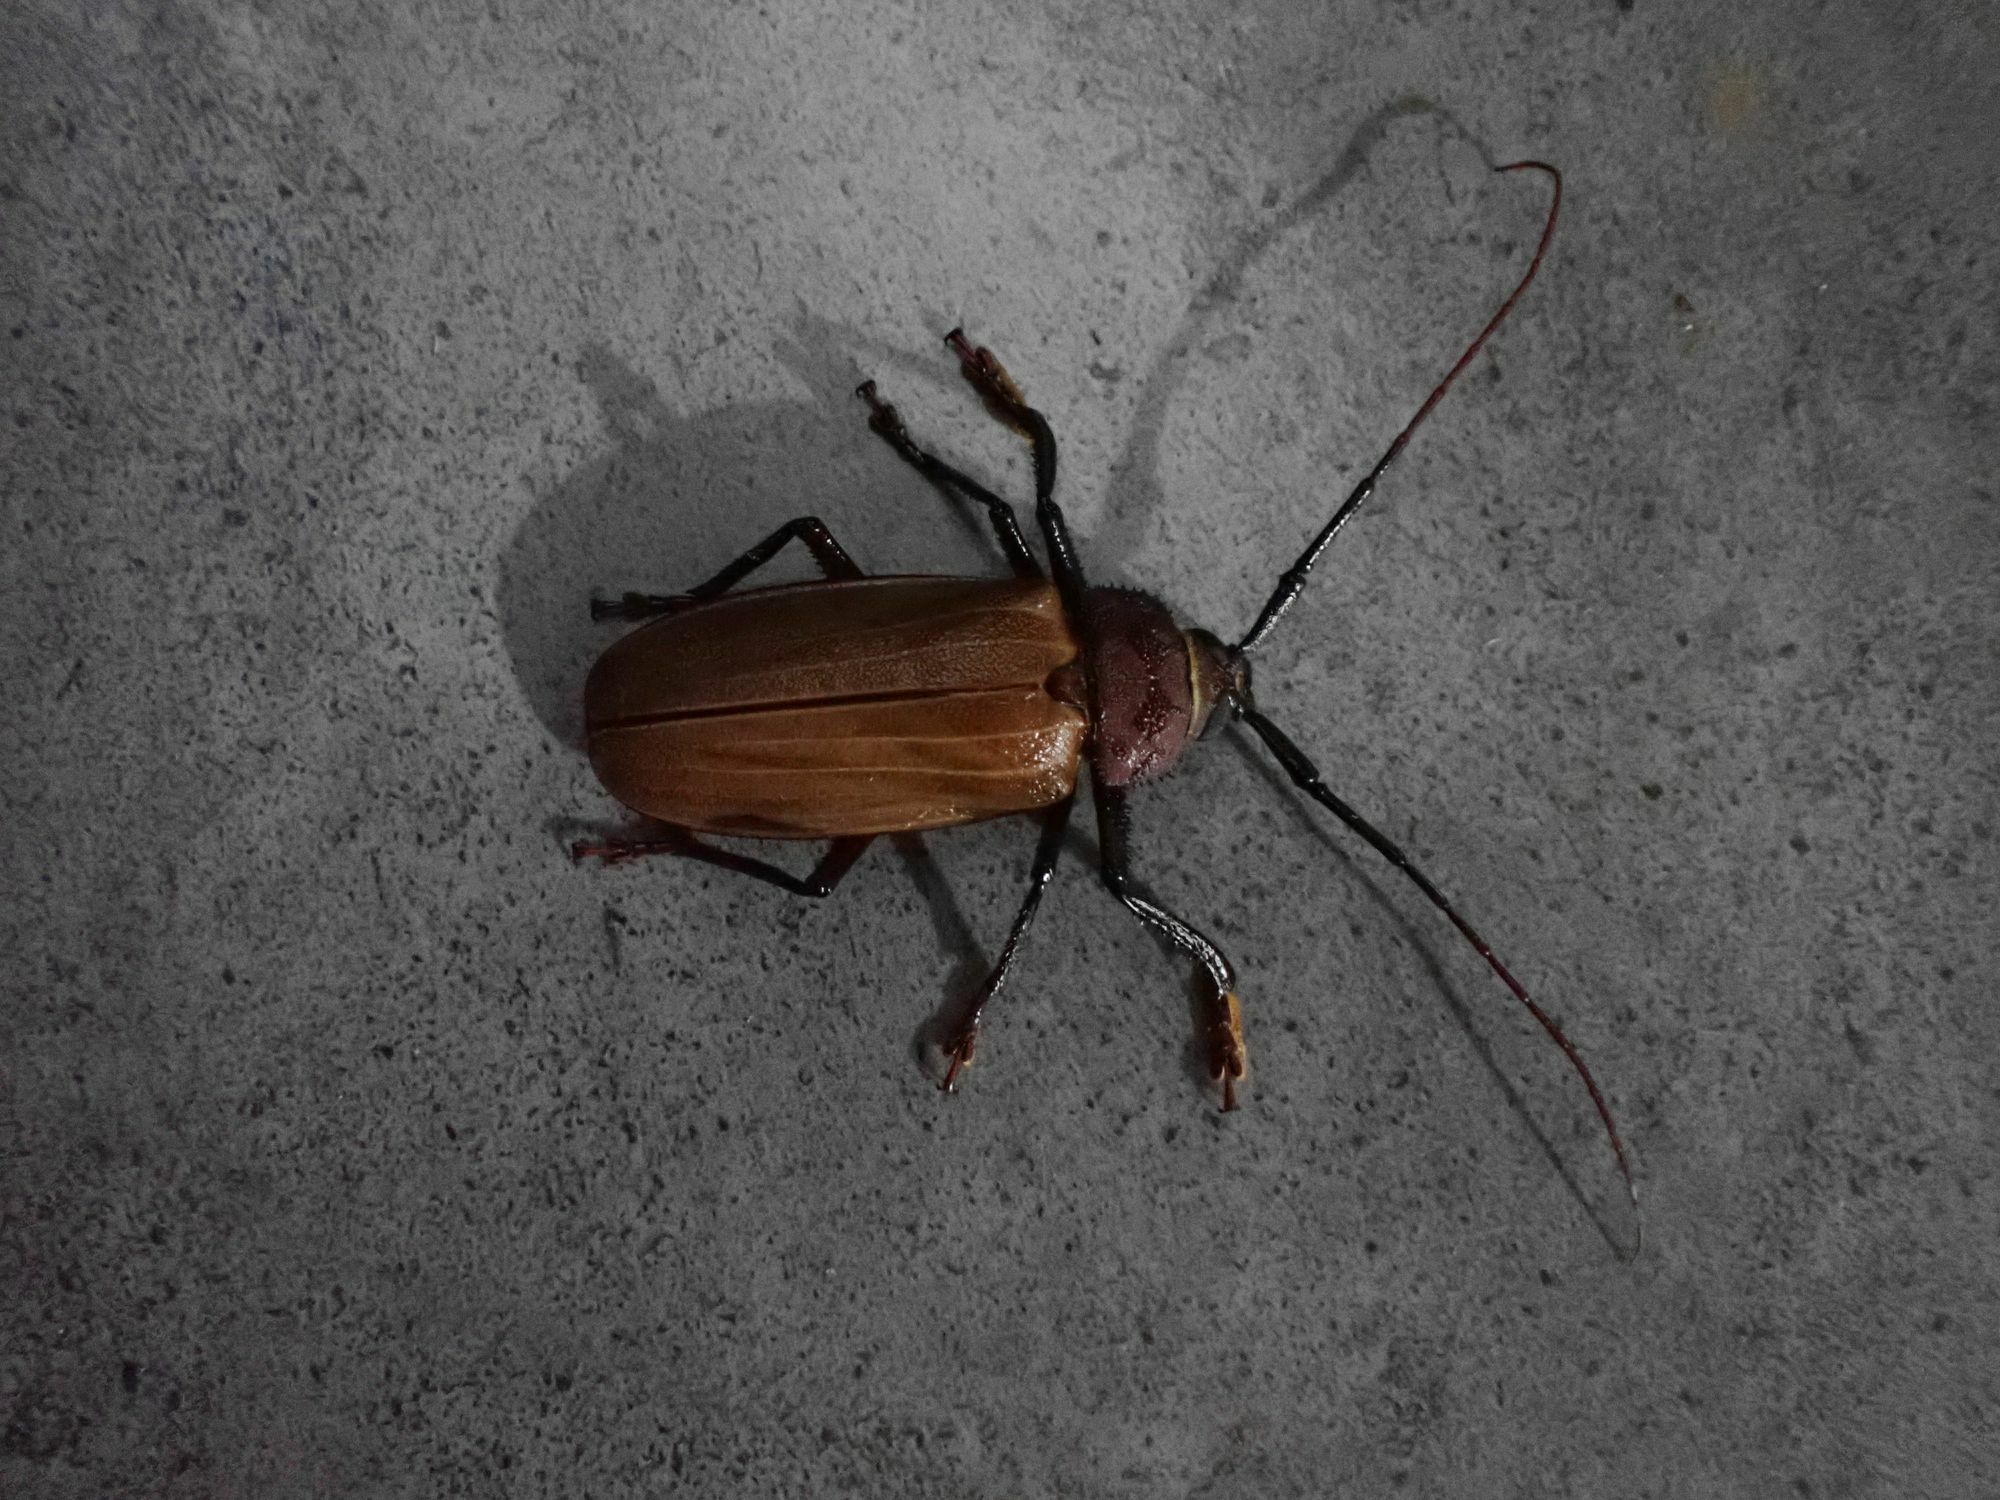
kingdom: Animalia
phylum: Arthropoda
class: Insecta
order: Coleoptera
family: Cerambycidae
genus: Agrianome
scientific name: Agrianome spinicollis
